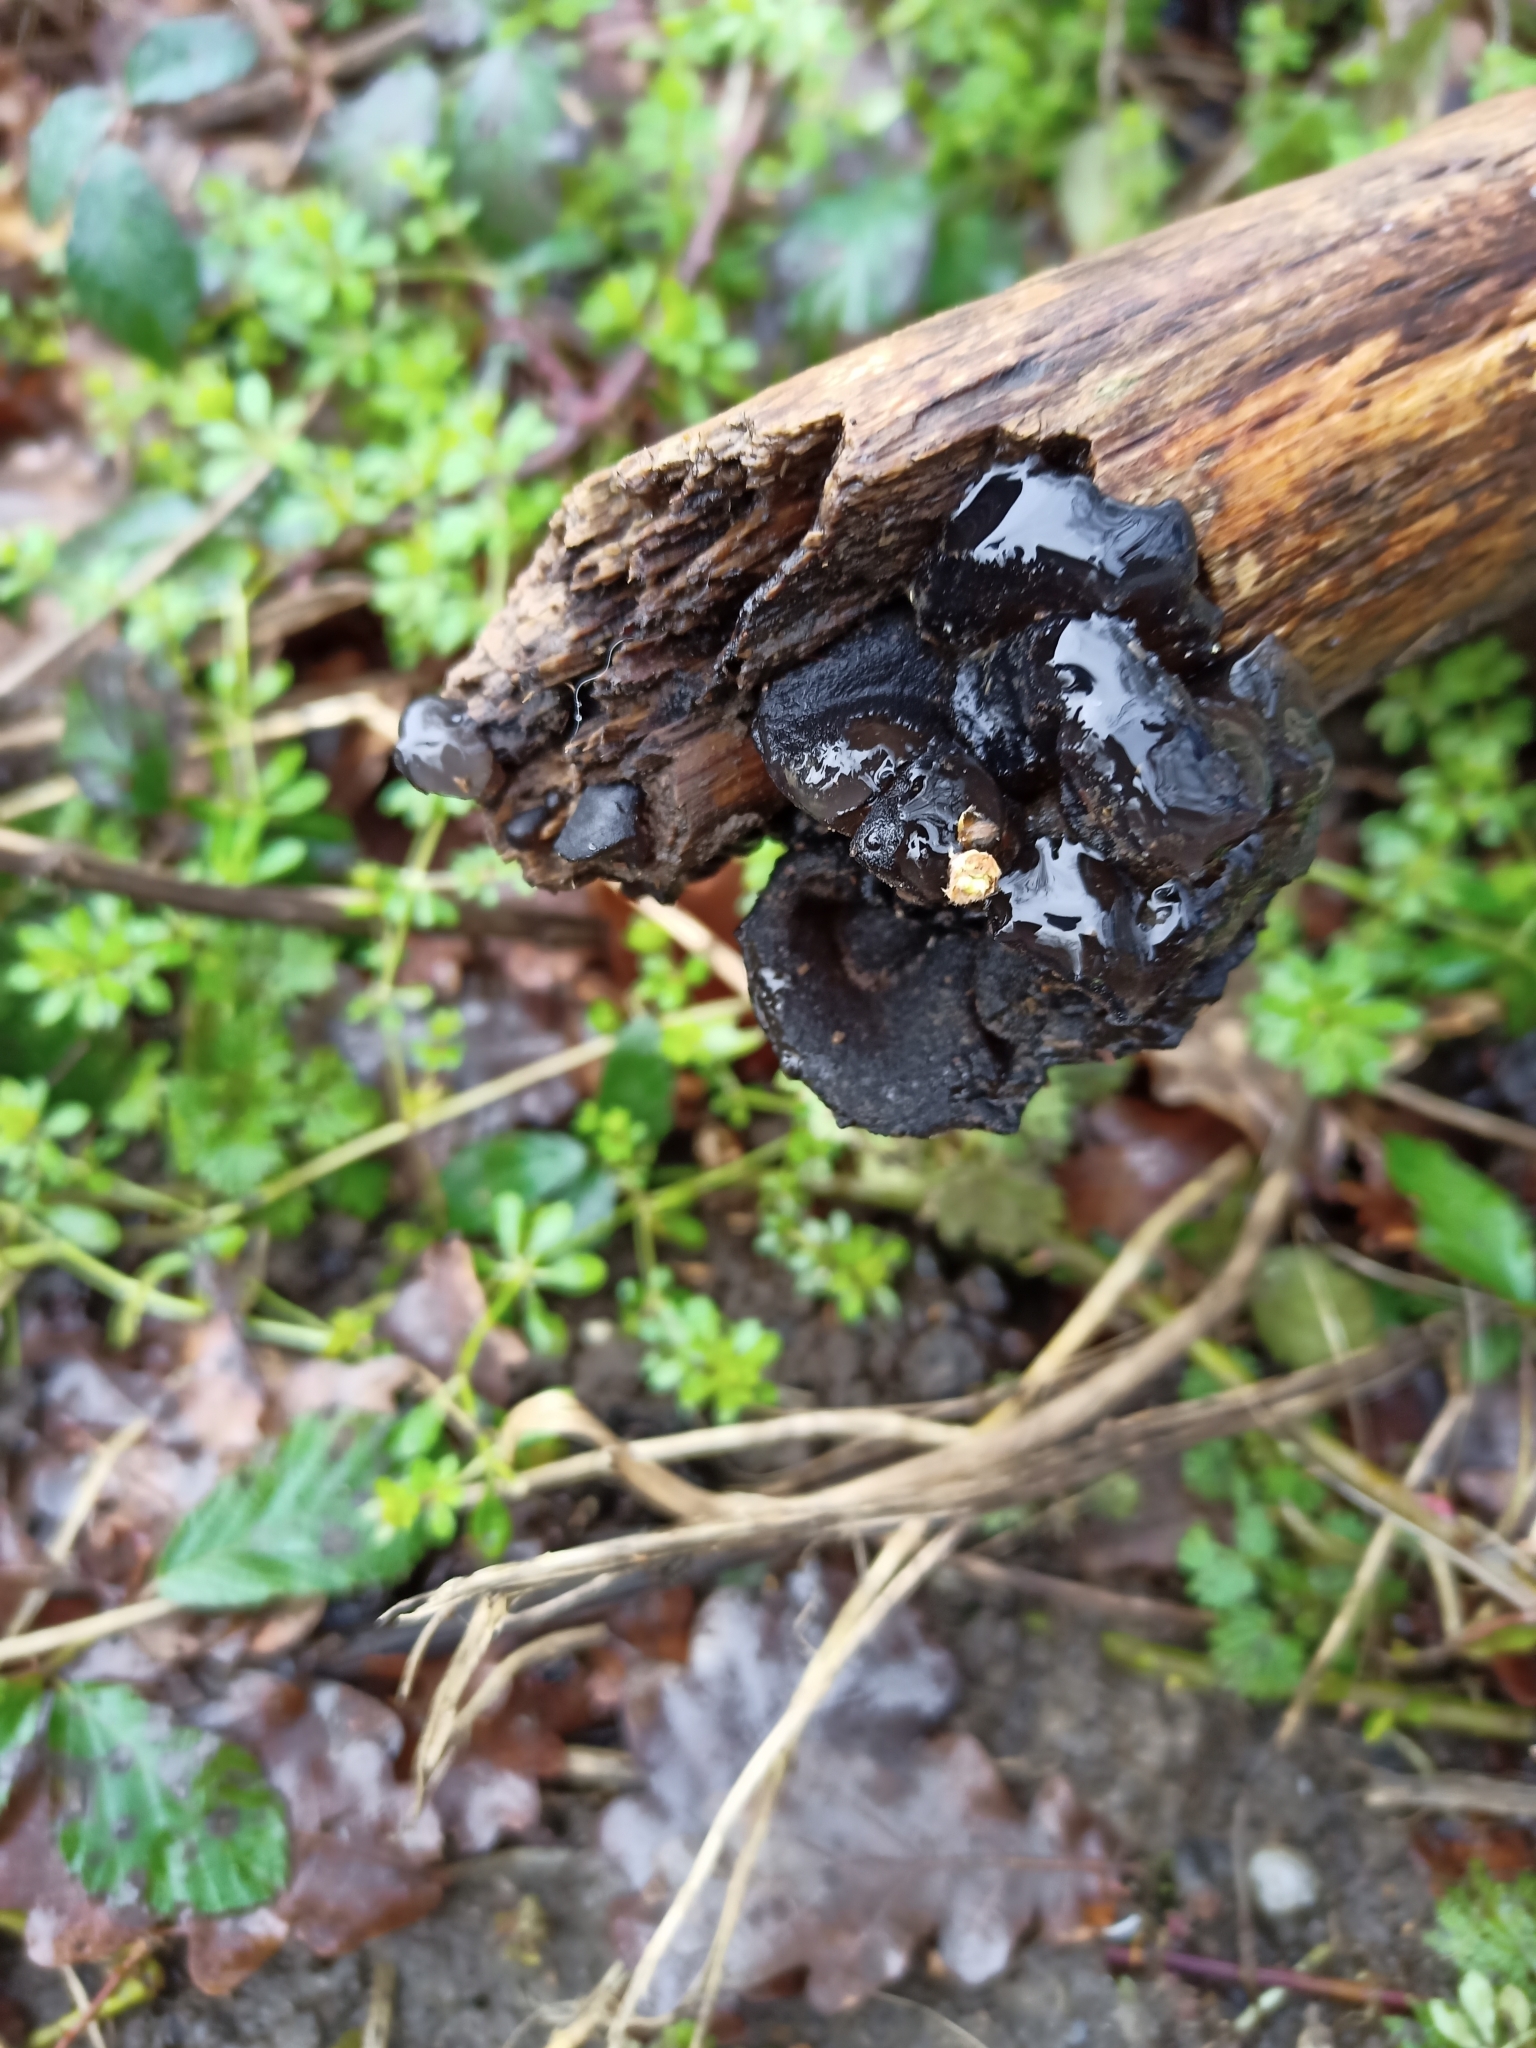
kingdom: Fungi
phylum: Basidiomycota
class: Agaricomycetes
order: Auriculariales
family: Auriculariaceae
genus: Exidia
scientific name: Exidia glandulosa
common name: Witches' butter
